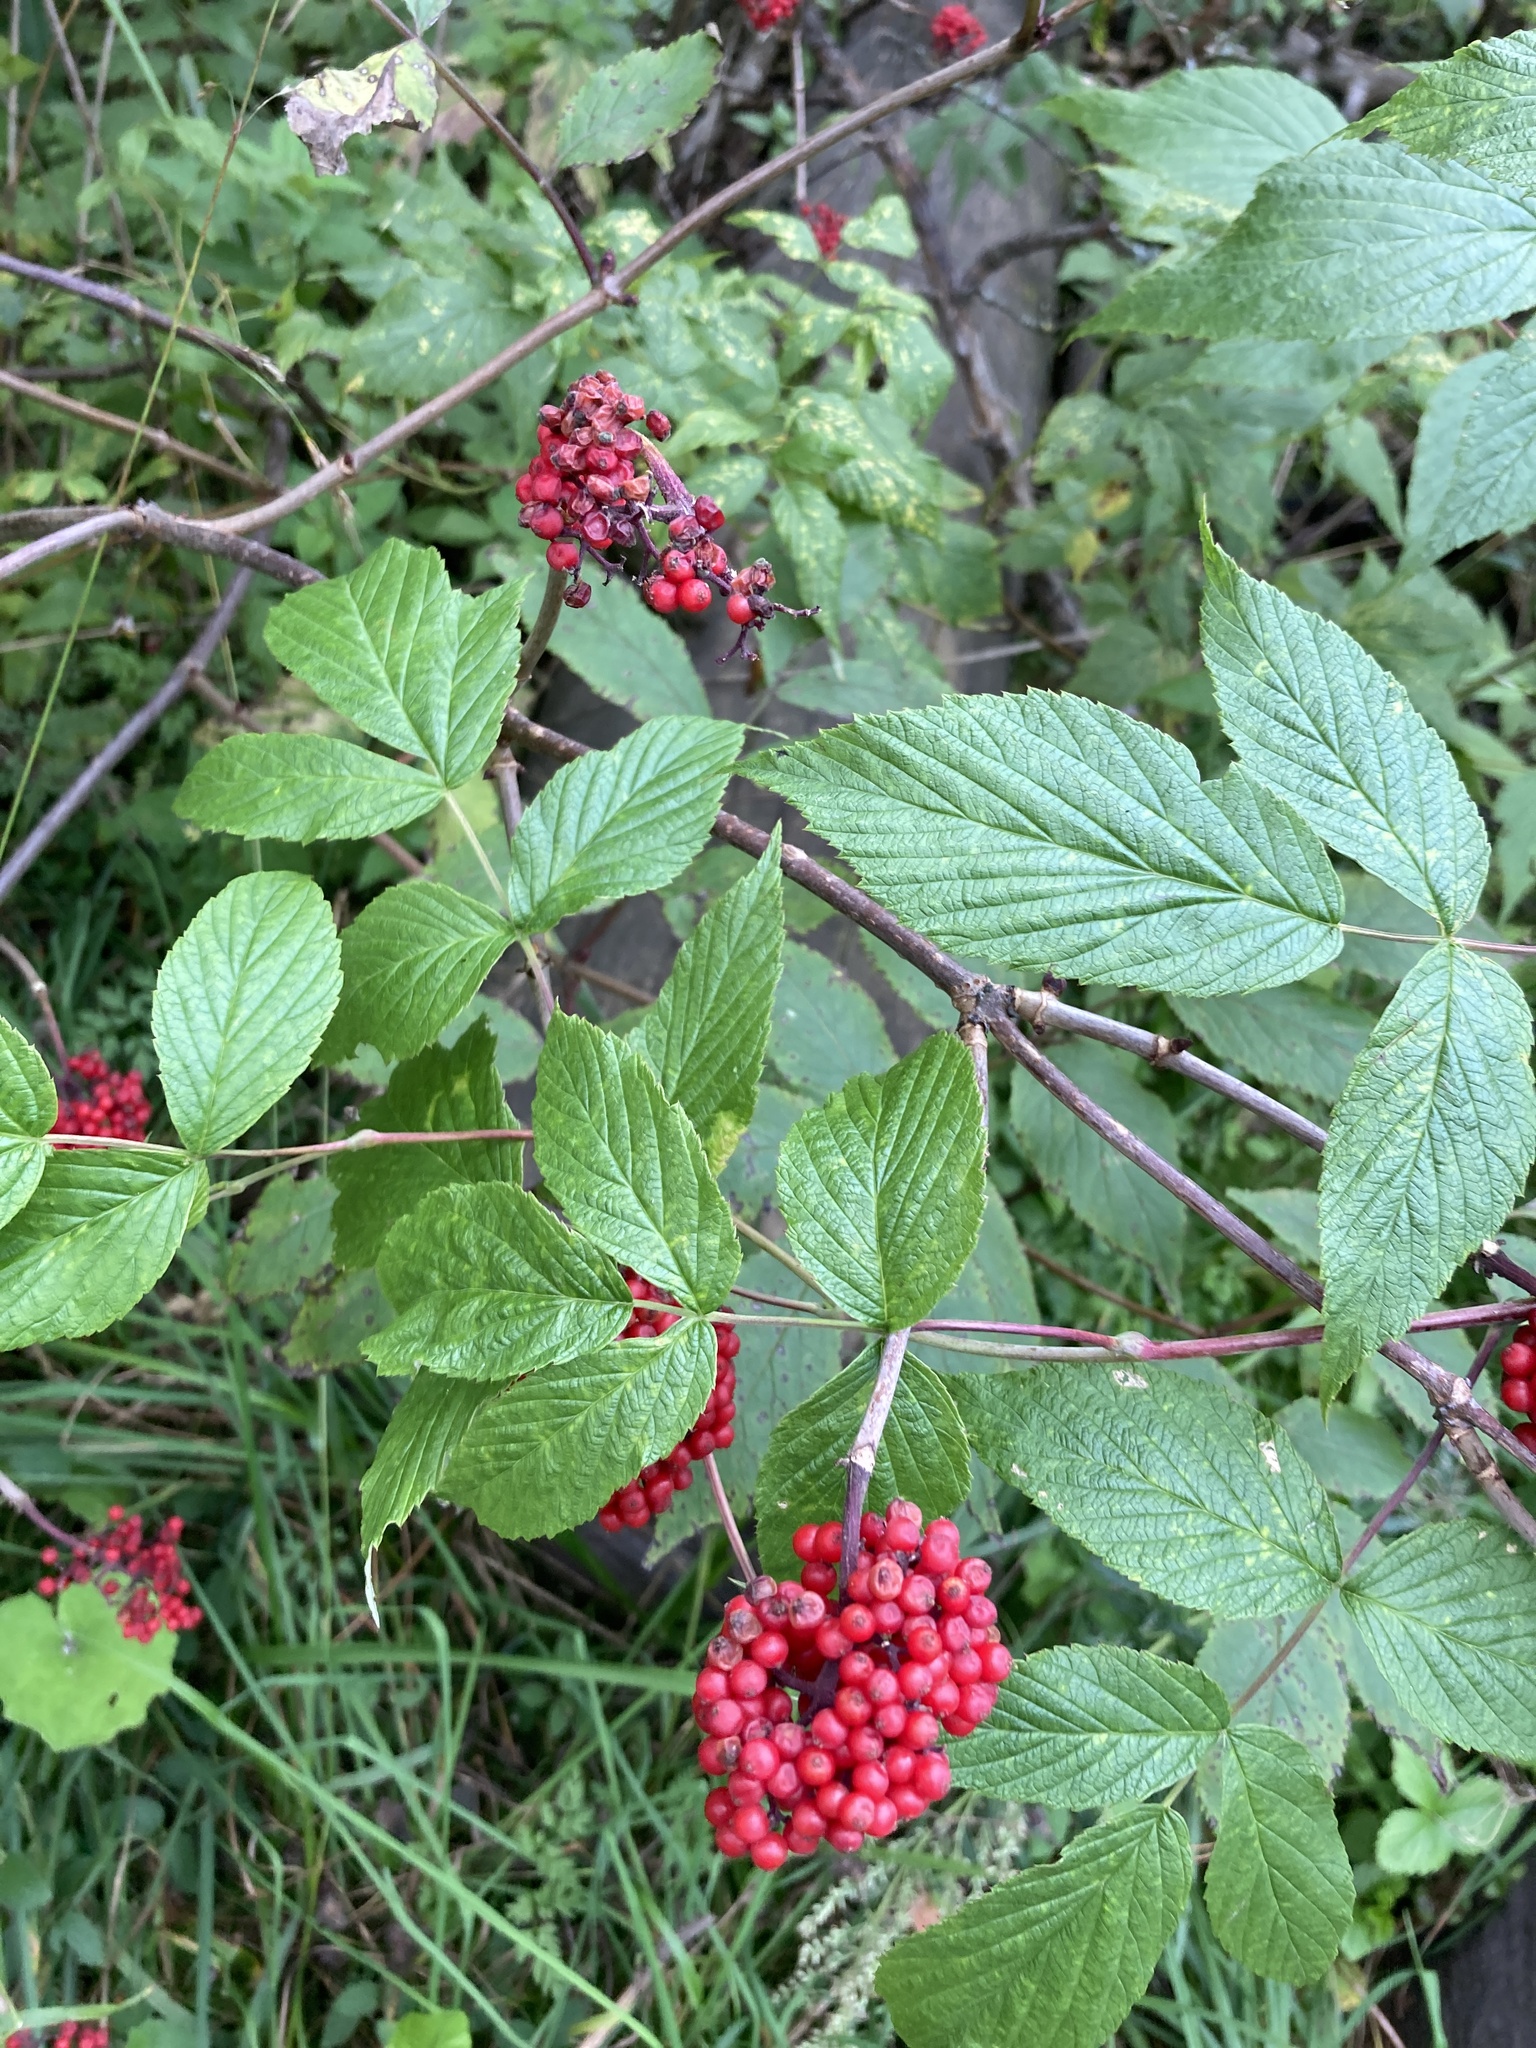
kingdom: Plantae
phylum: Tracheophyta
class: Magnoliopsida
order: Dipsacales
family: Viburnaceae
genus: Sambucus
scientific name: Sambucus racemosa
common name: Red-berried elder
